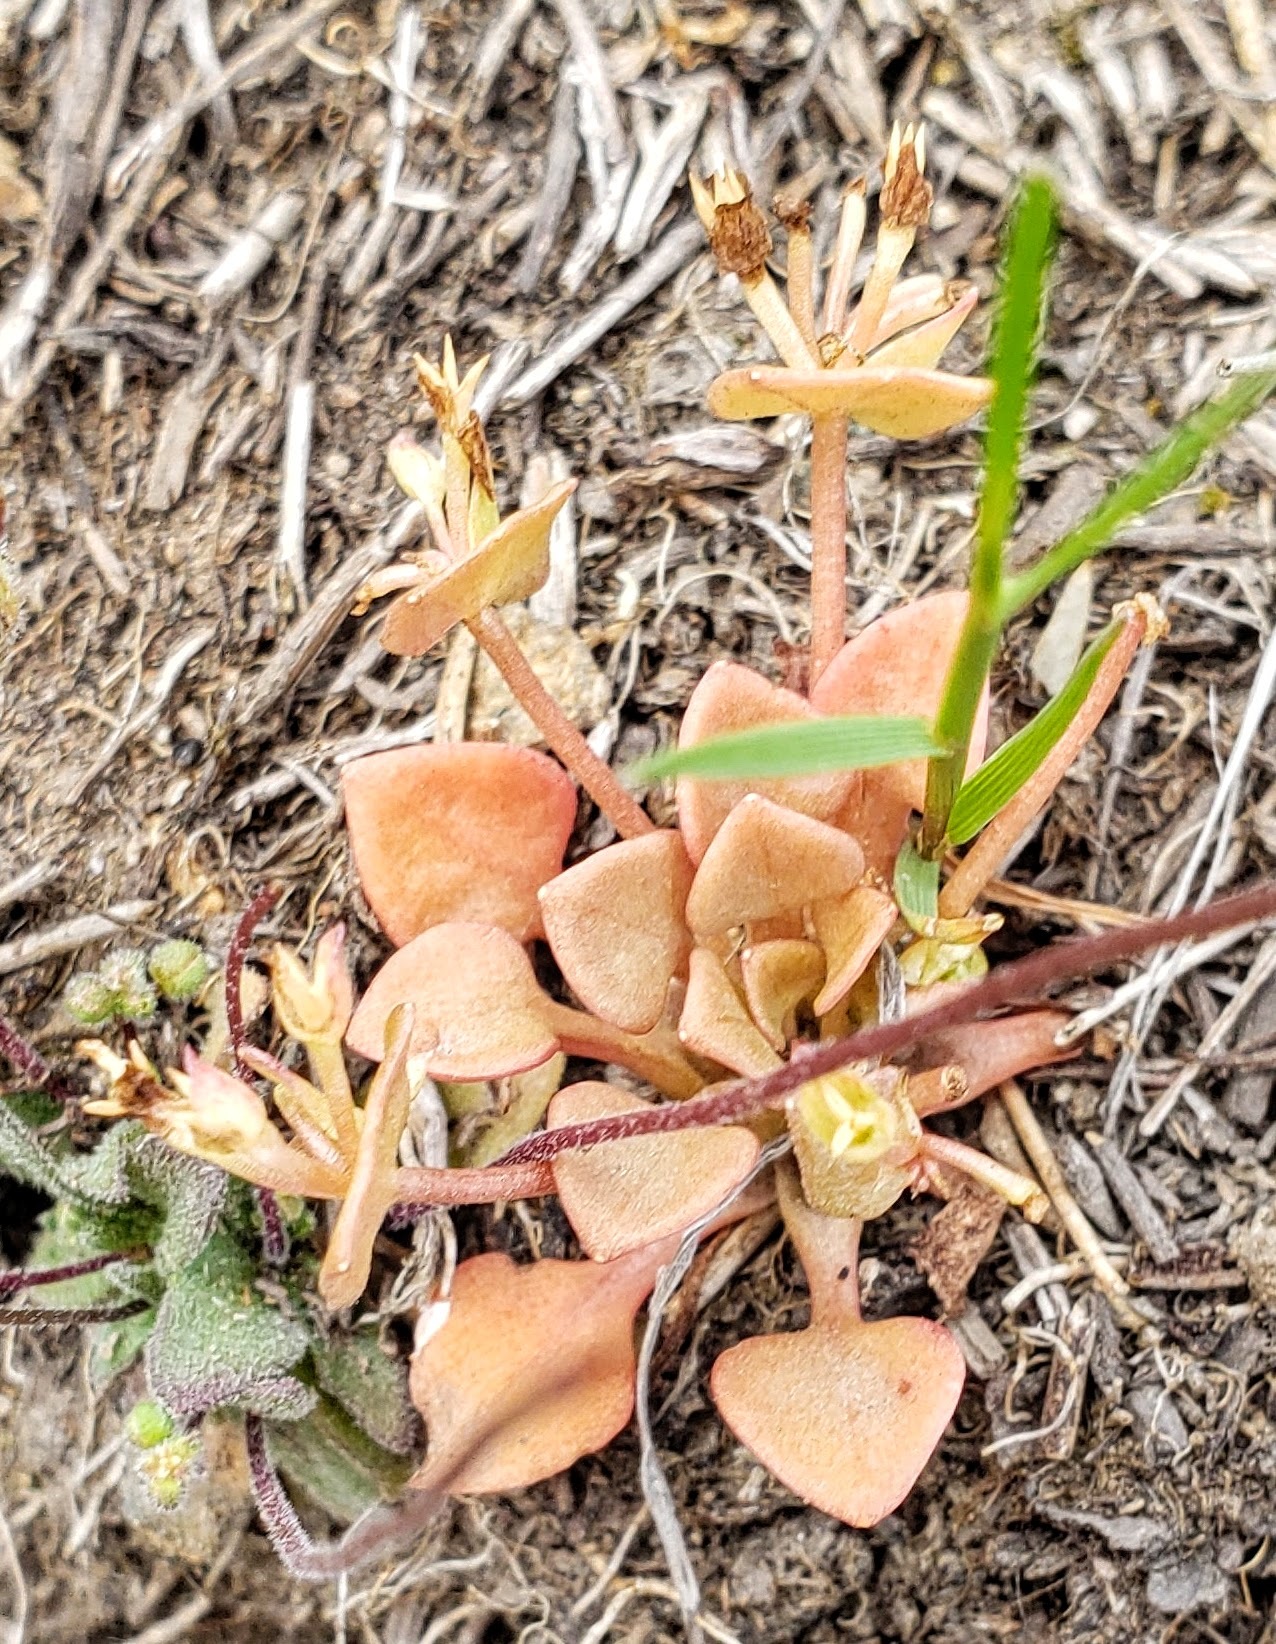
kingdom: Plantae
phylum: Tracheophyta
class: Magnoliopsida
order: Caryophyllales
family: Montiaceae
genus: Claytonia
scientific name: Claytonia rubra
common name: Erubescent miner's-lettuce
